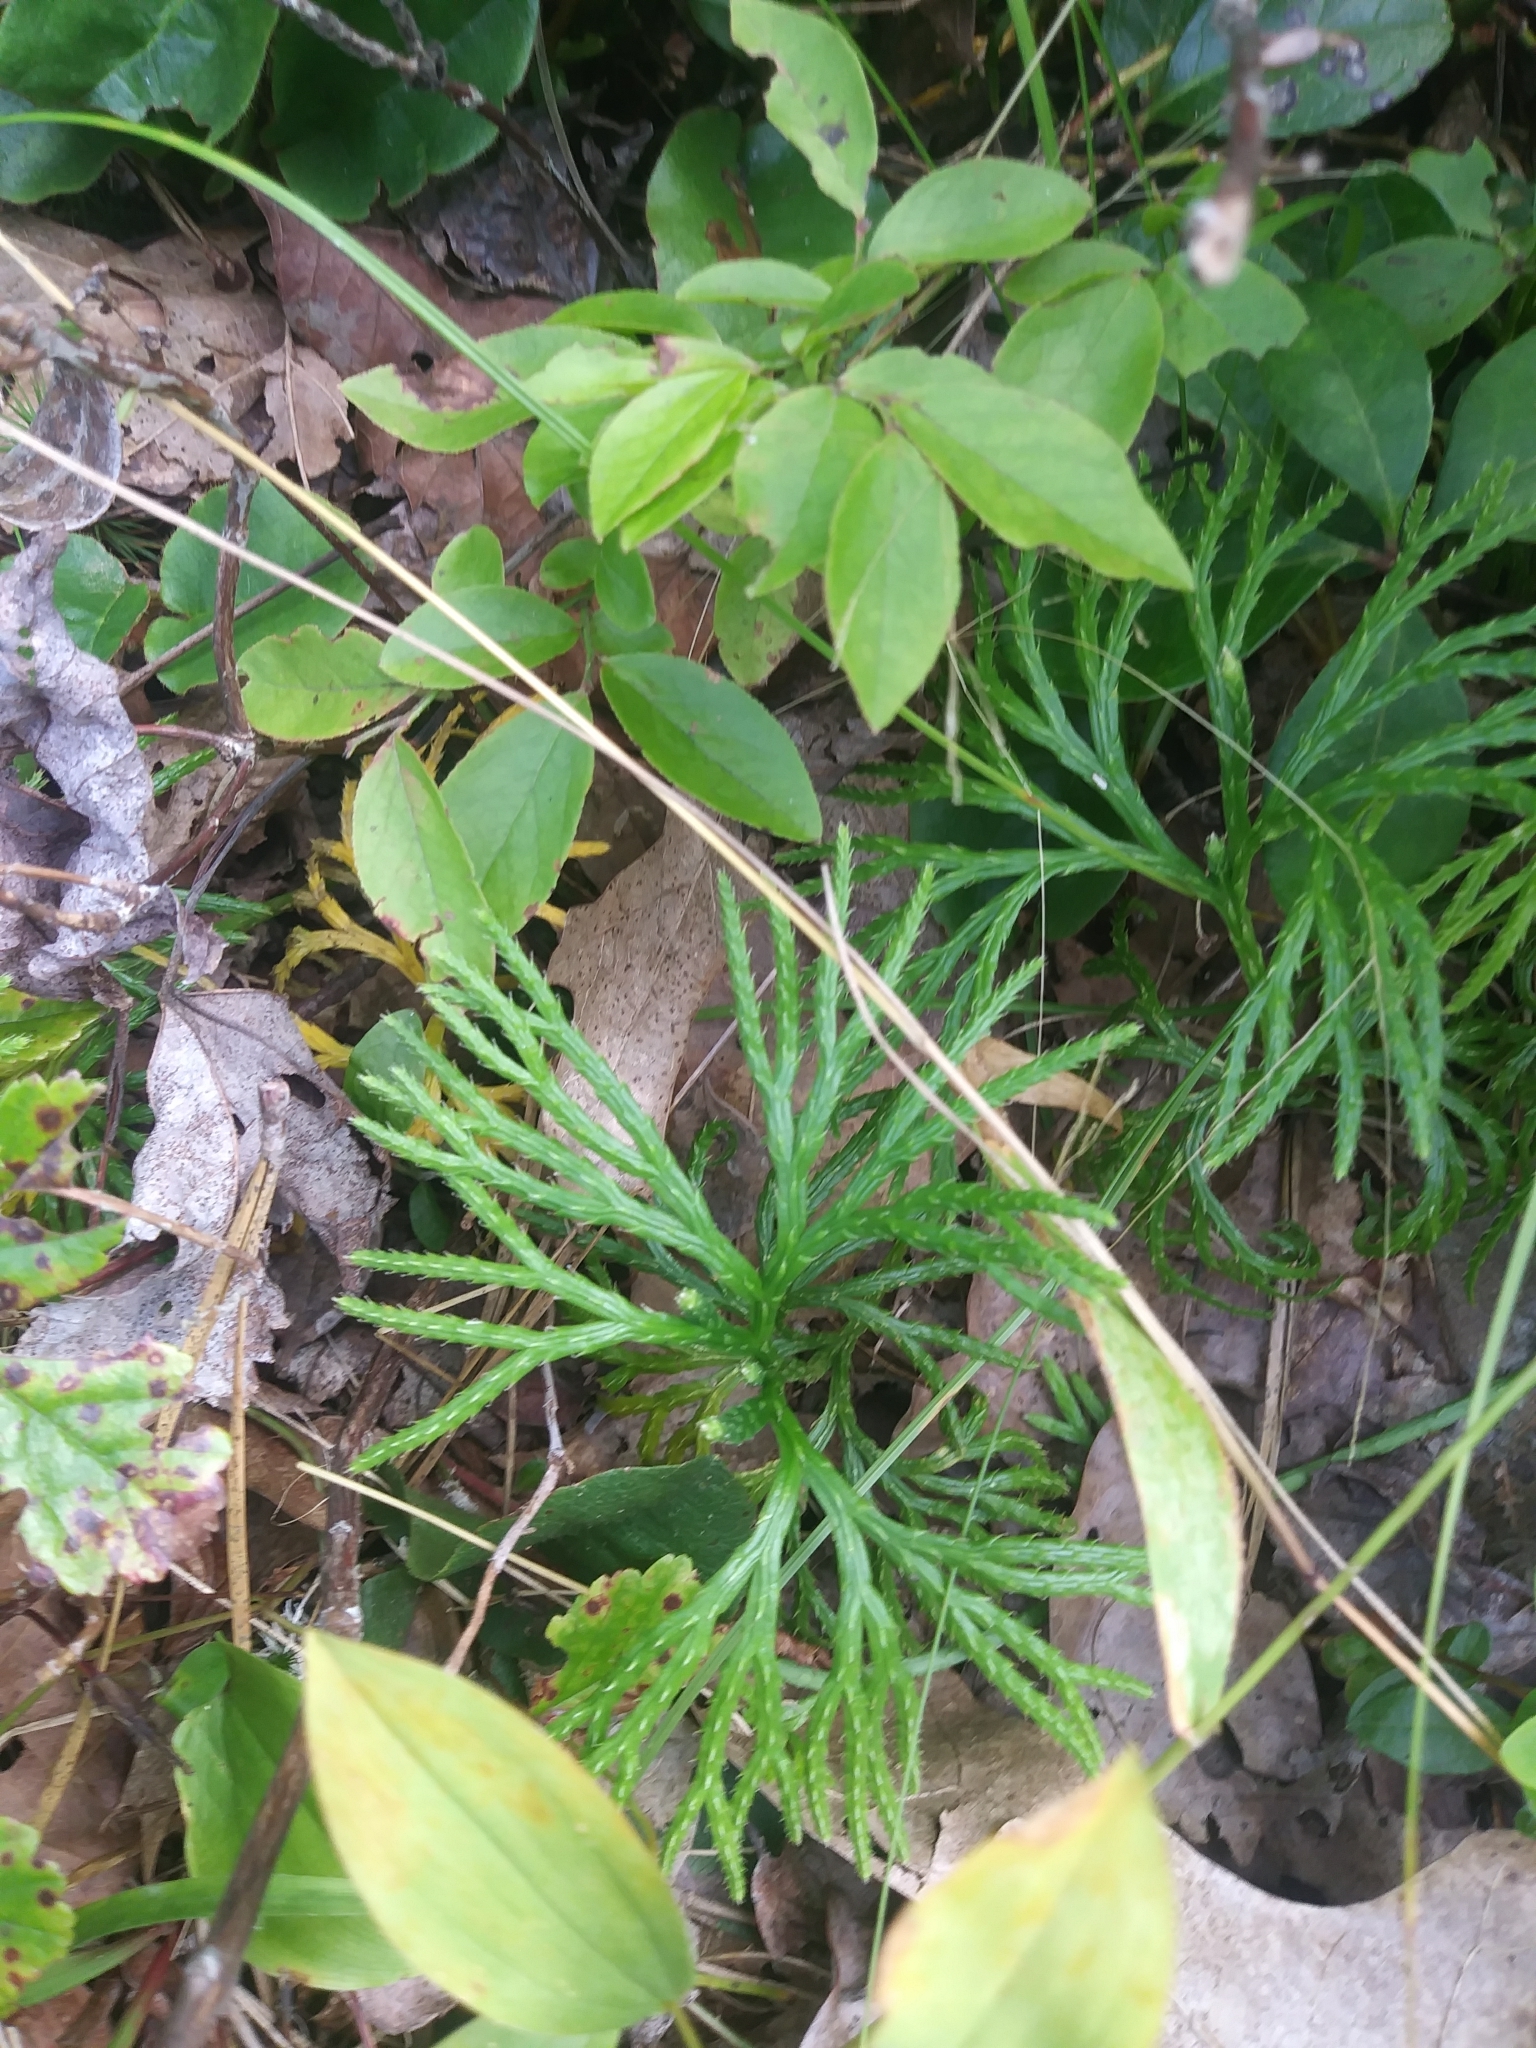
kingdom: Plantae
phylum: Tracheophyta
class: Lycopodiopsida
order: Lycopodiales
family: Lycopodiaceae
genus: Diphasiastrum
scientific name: Diphasiastrum digitatum
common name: Southern running-pine
